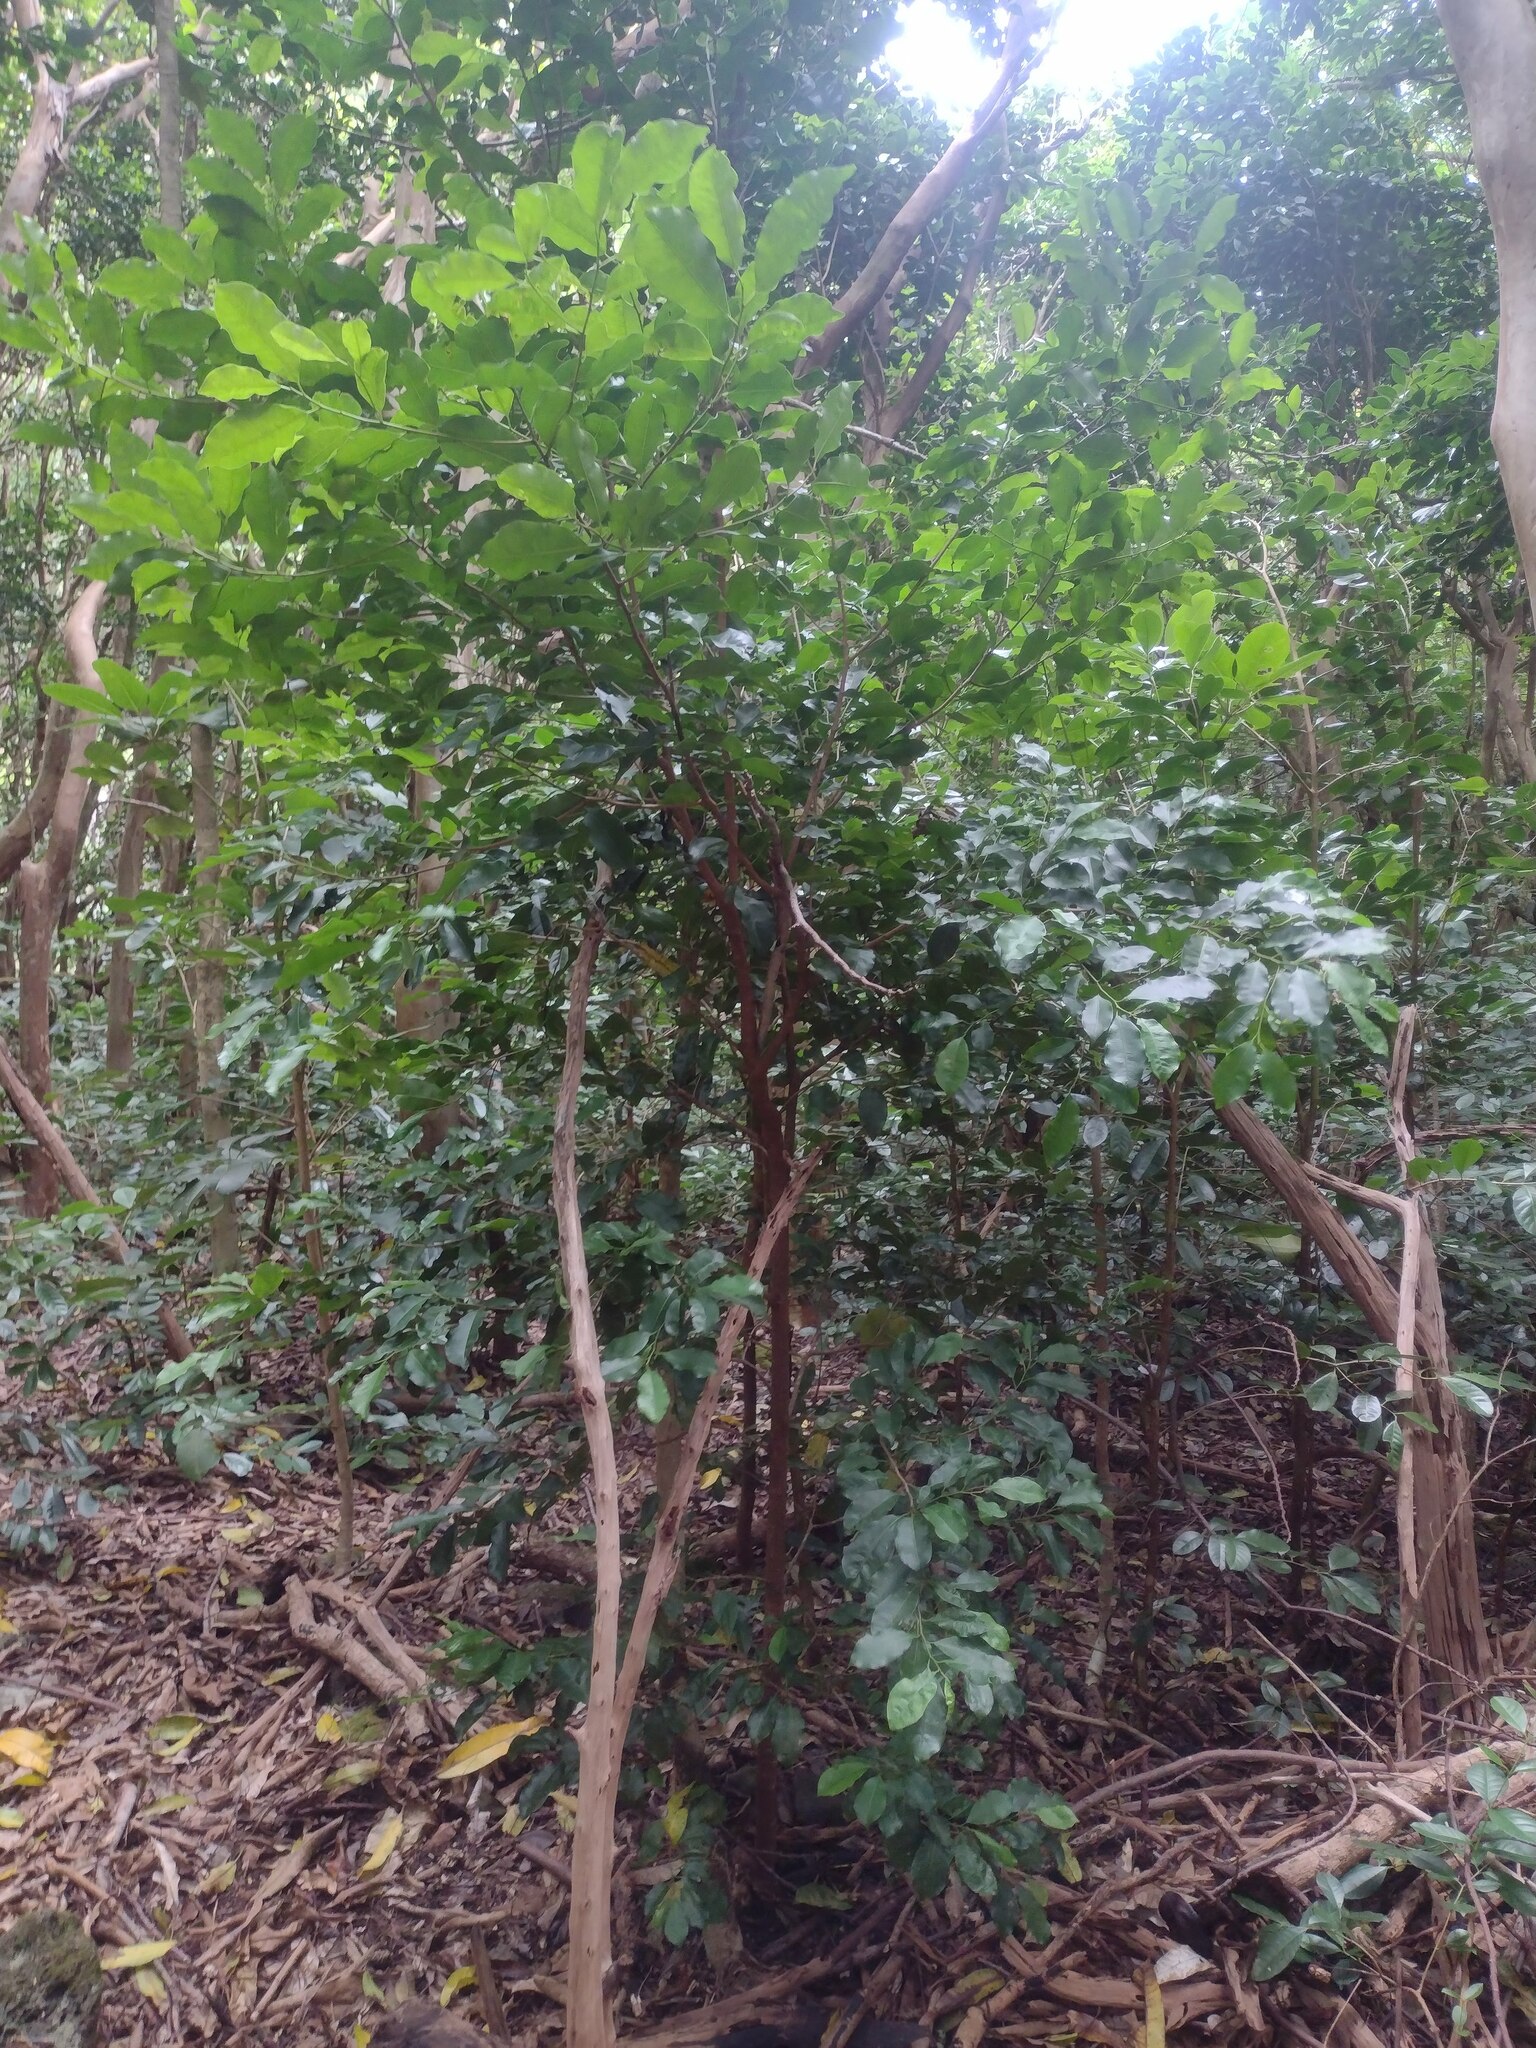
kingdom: Plantae
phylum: Tracheophyta
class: Magnoliopsida
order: Ericales
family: Sapotaceae
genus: Mimusops
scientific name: Mimusops elengi
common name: Spanish cherry
